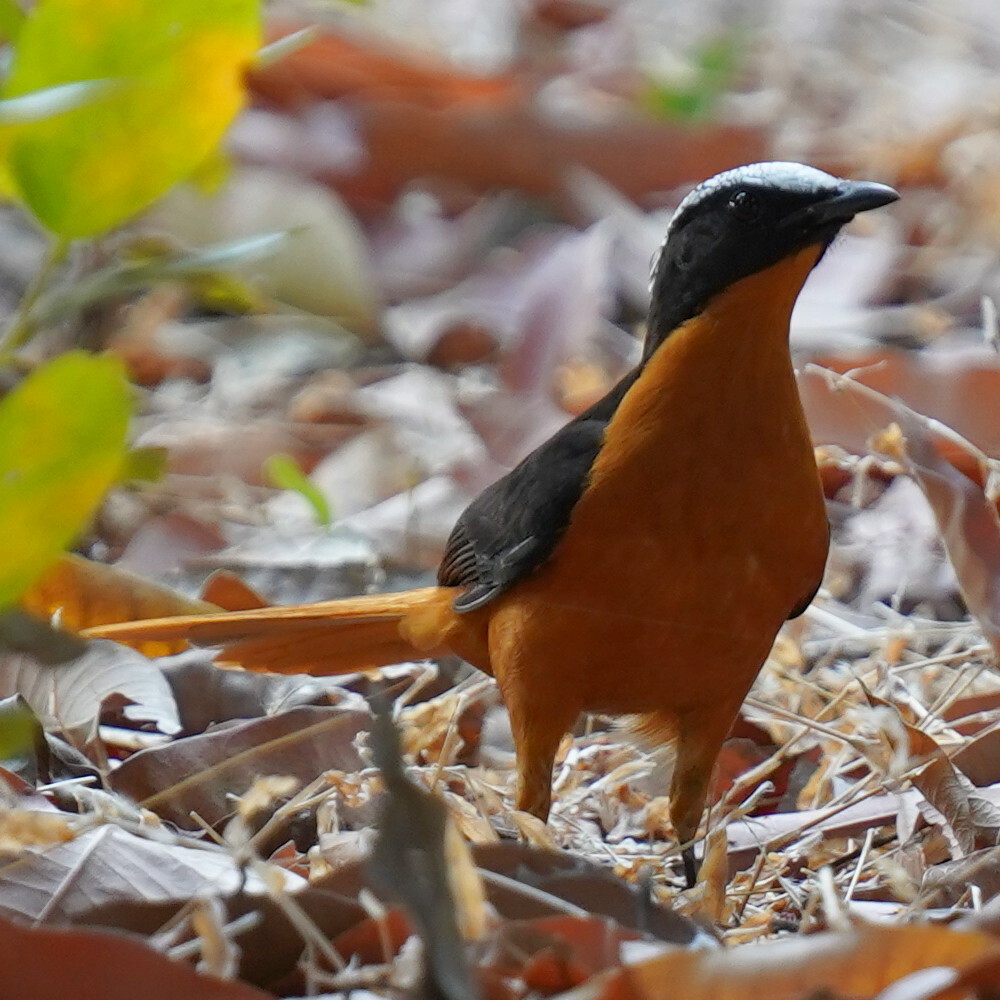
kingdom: Animalia
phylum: Chordata
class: Aves
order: Passeriformes
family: Muscicapidae
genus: Cossypha
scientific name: Cossypha albicapillus
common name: White-crowned robin-chat
